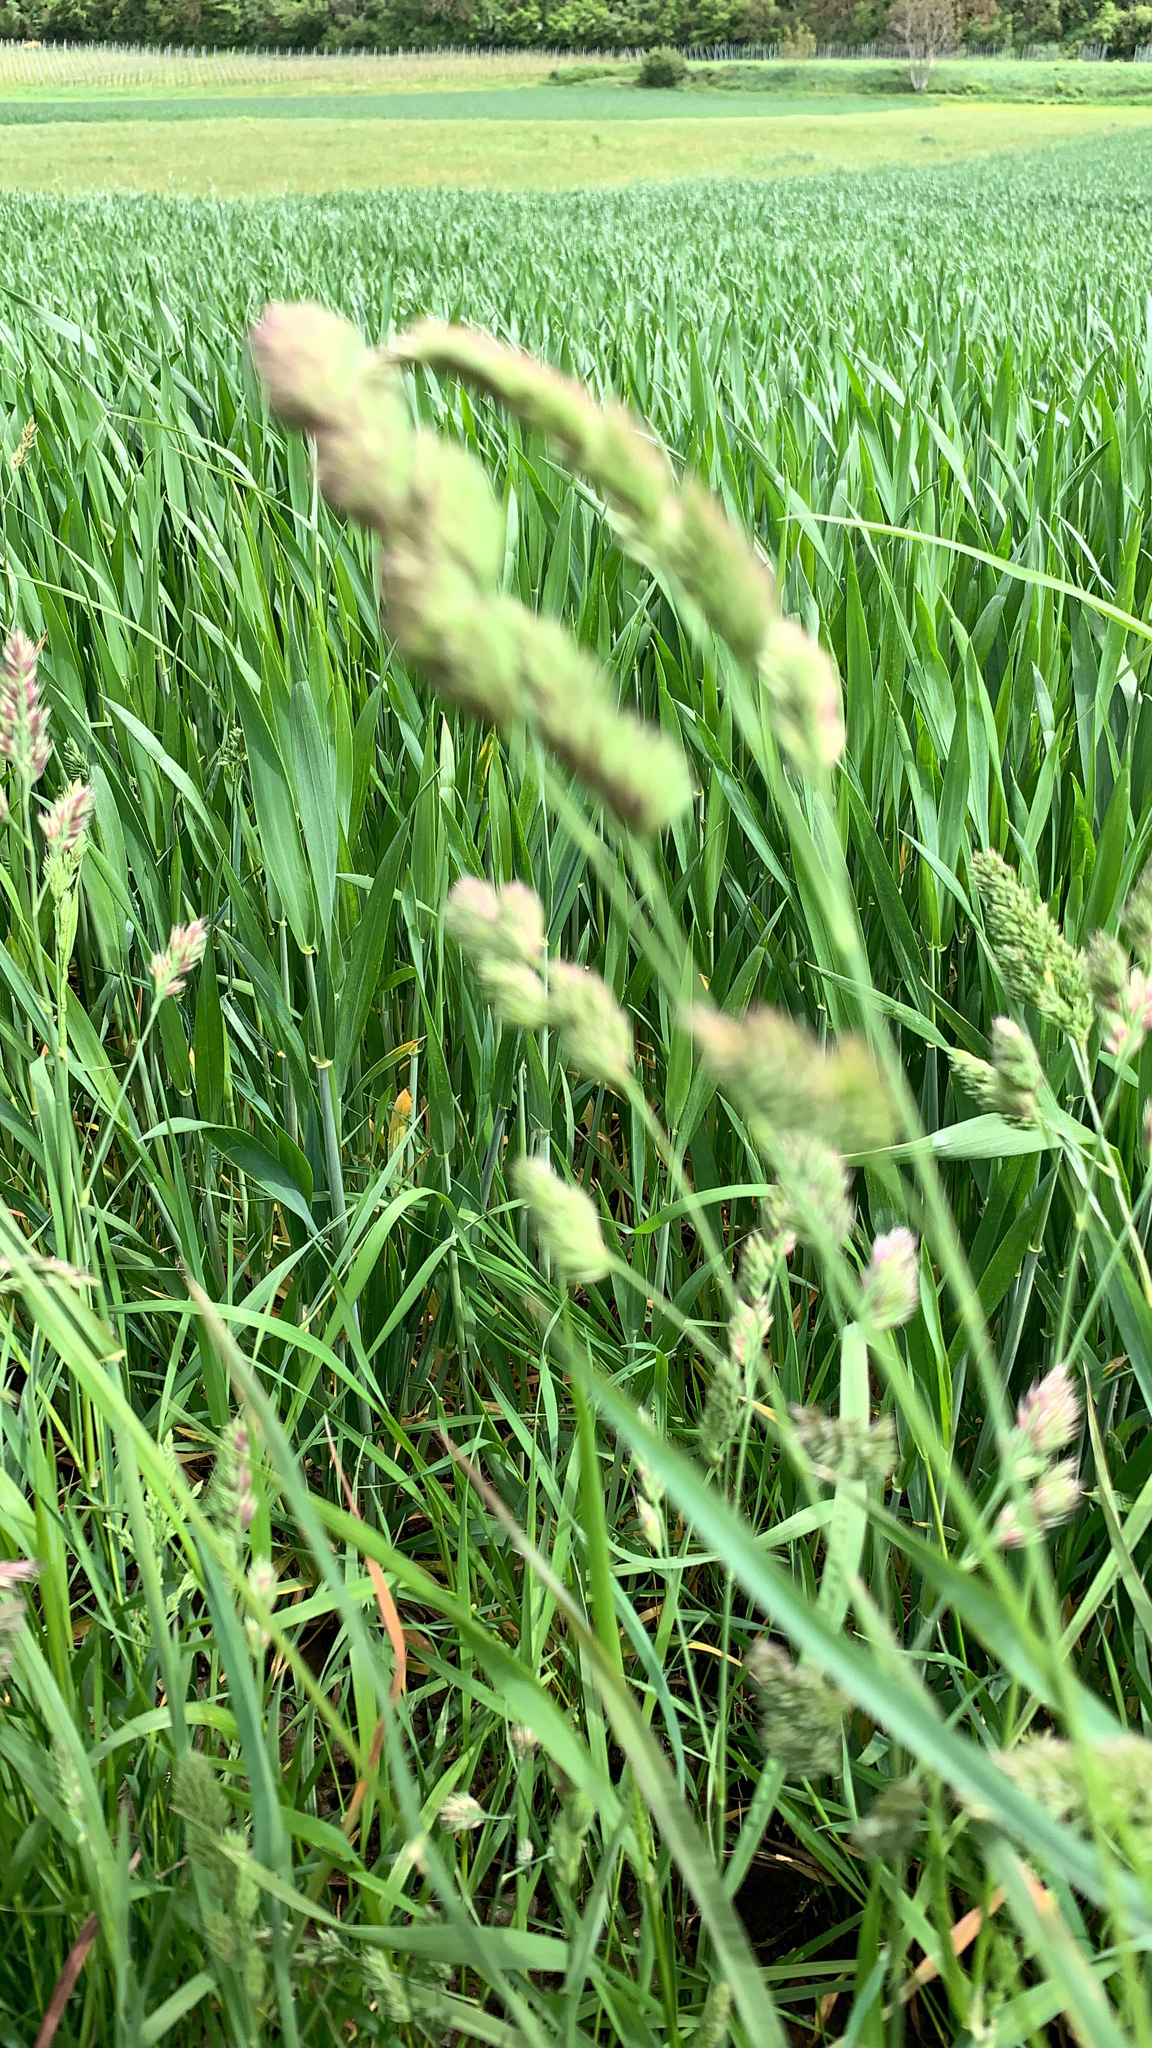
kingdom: Plantae
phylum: Tracheophyta
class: Liliopsida
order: Poales
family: Poaceae
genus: Dactylis
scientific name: Dactylis glomerata
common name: Orchardgrass
